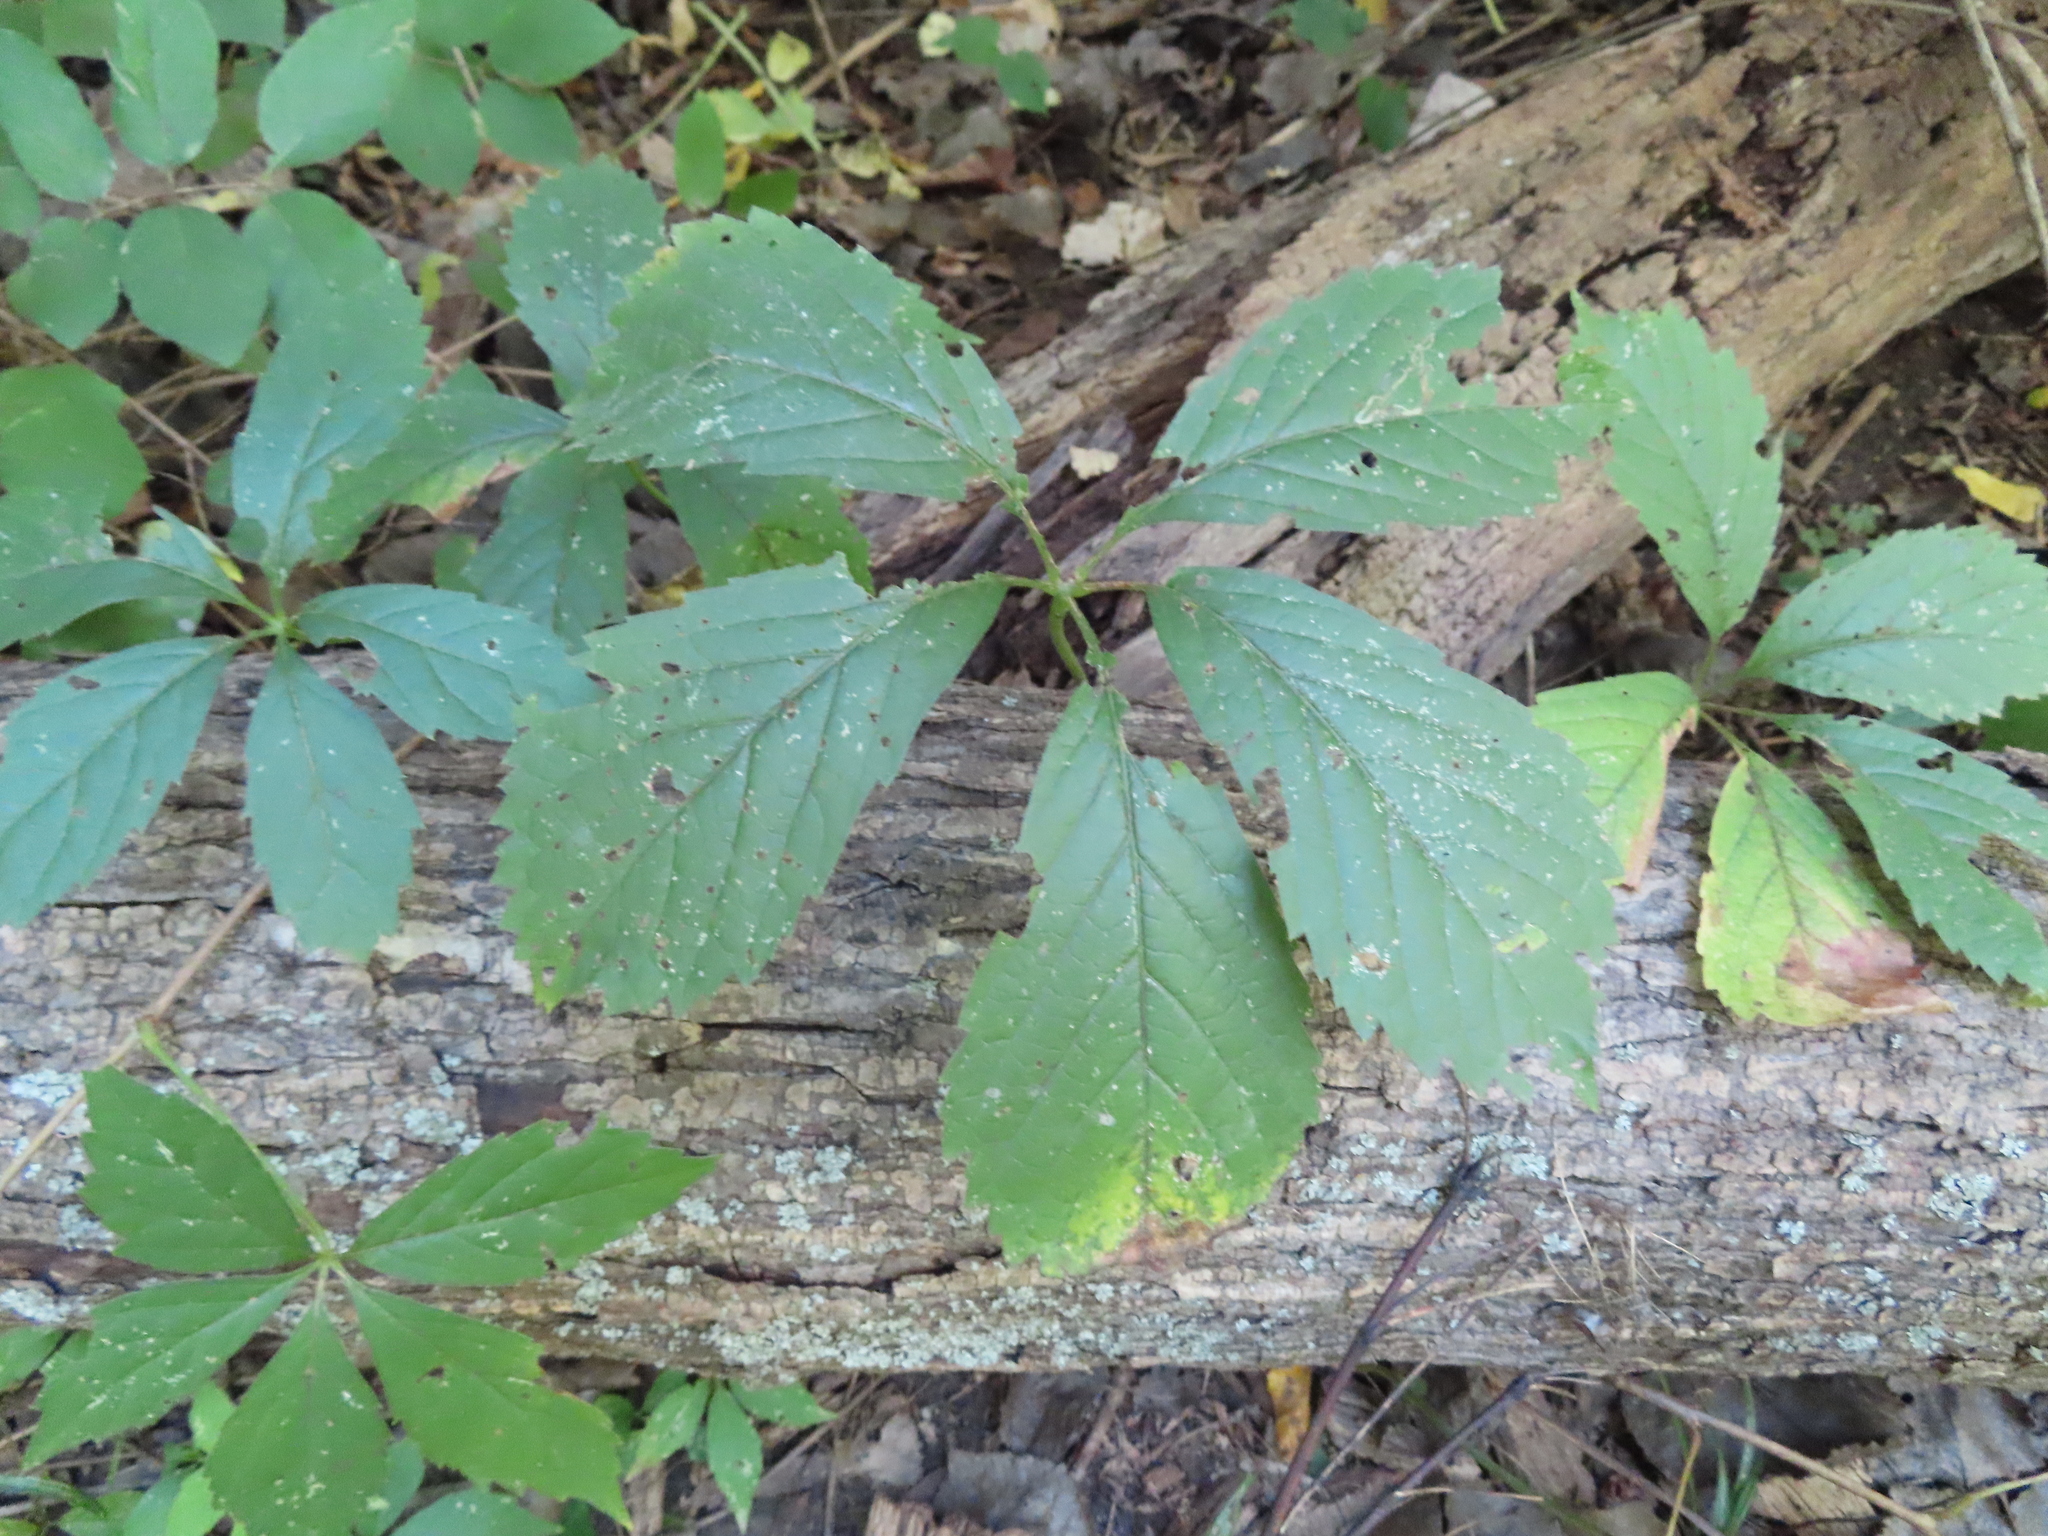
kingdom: Plantae
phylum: Tracheophyta
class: Magnoliopsida
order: Vitales
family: Vitaceae
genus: Parthenocissus
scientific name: Parthenocissus inserta
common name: False virginia-creeper
